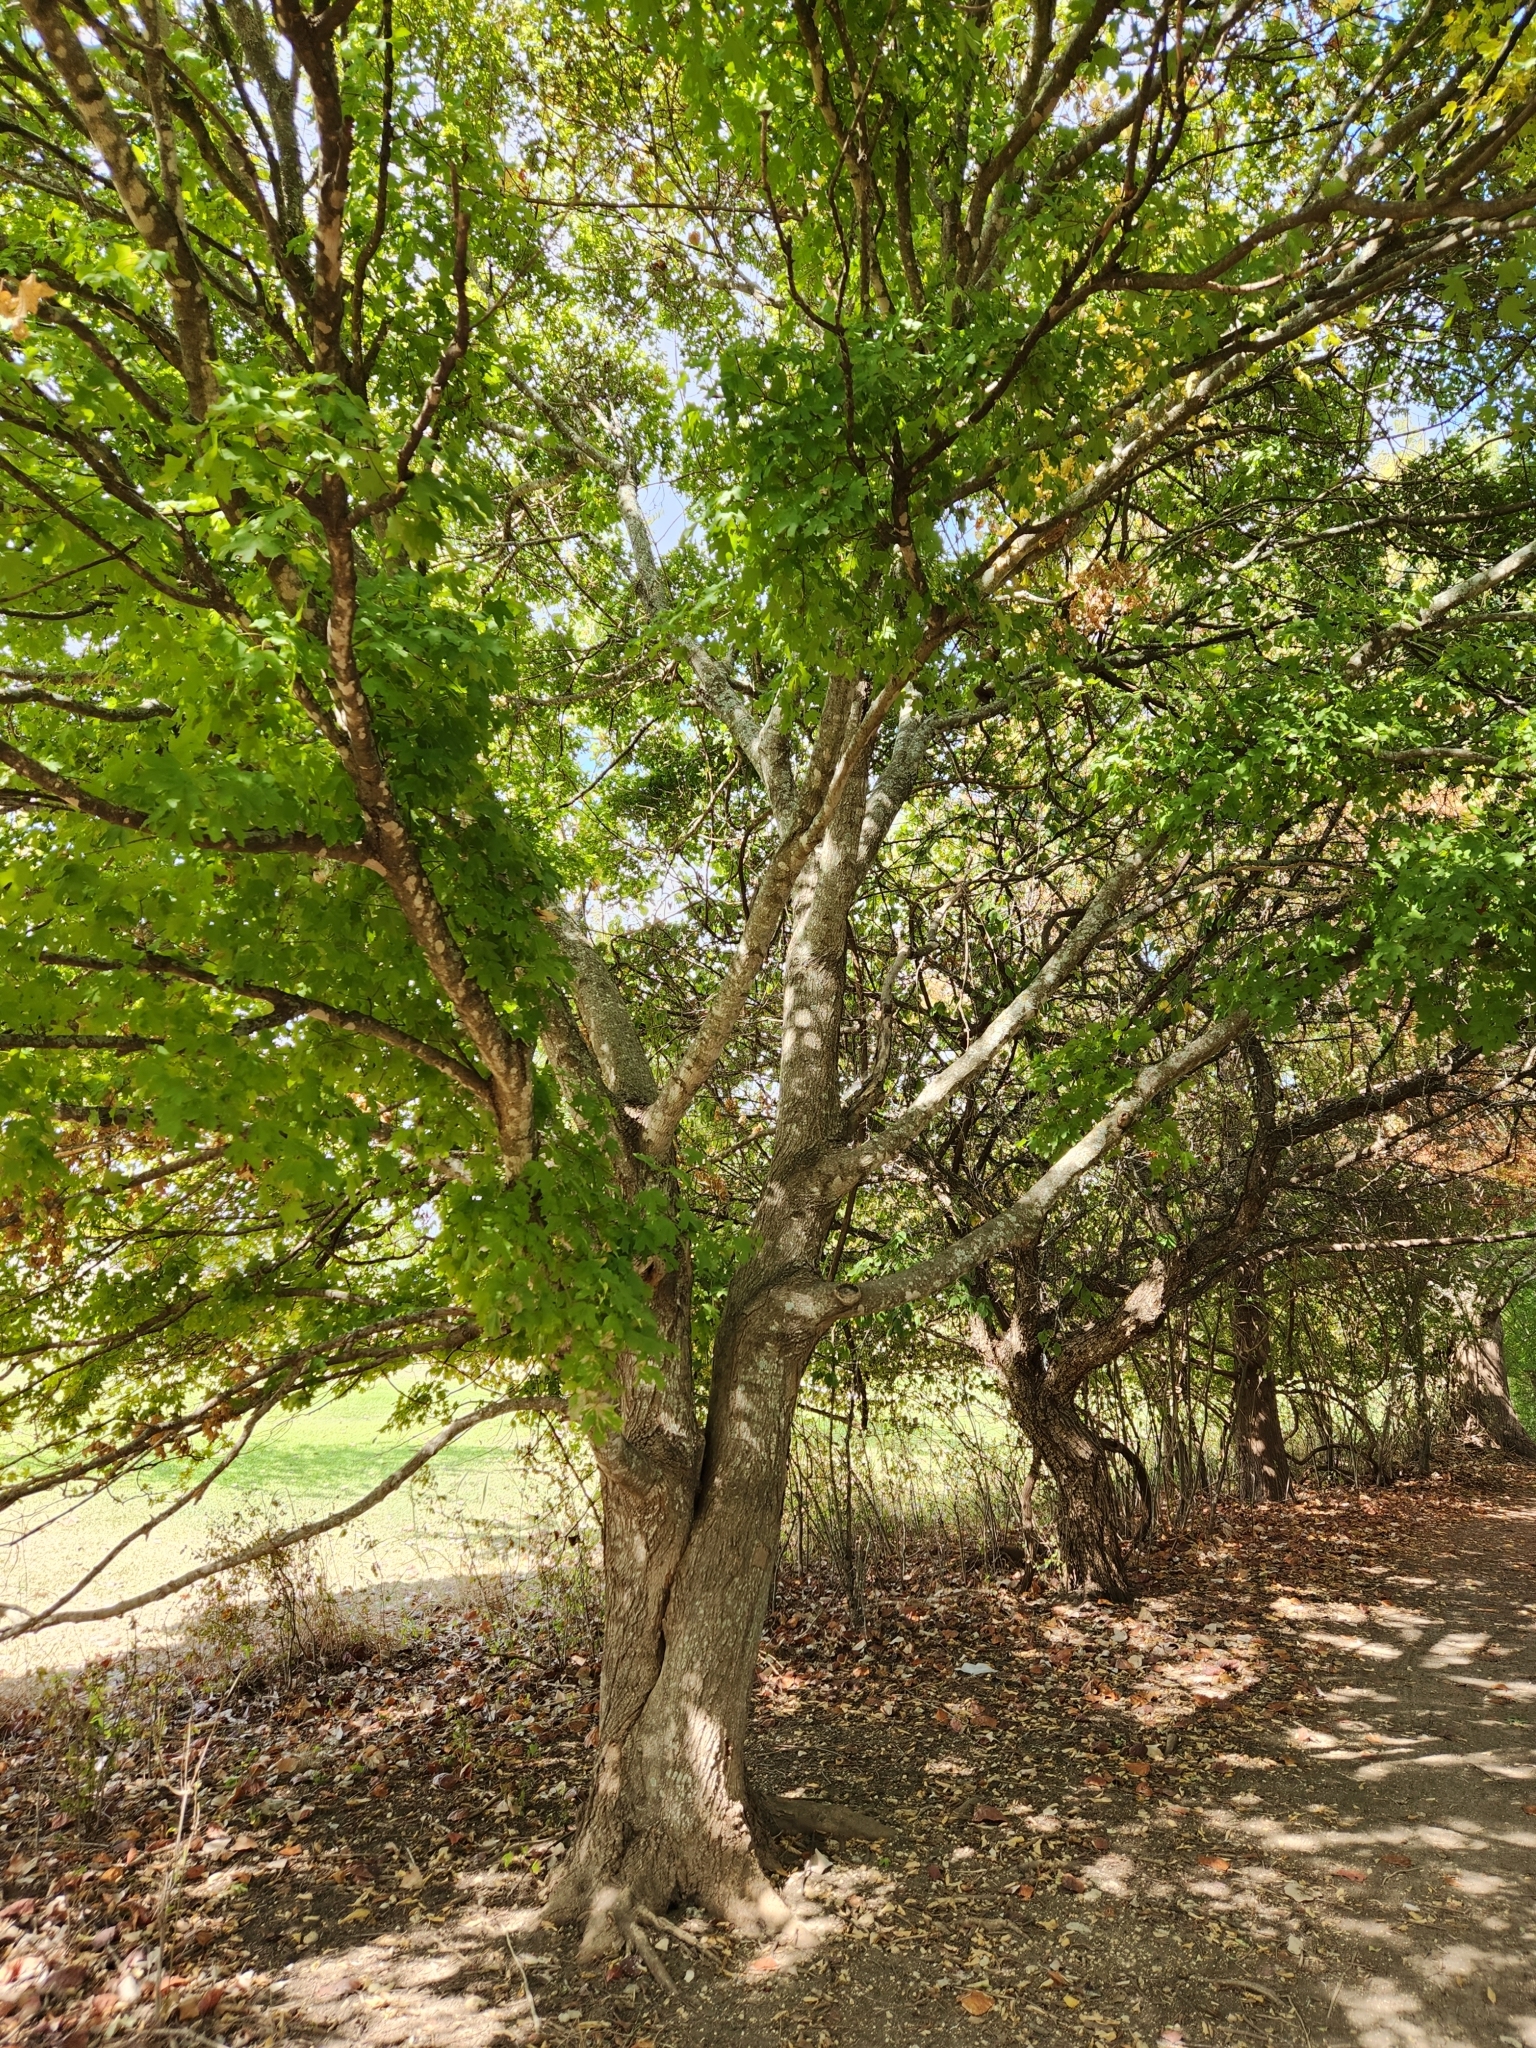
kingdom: Plantae
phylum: Tracheophyta
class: Magnoliopsida
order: Sapindales
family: Sapindaceae
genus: Acer
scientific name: Acer grandidentatum
